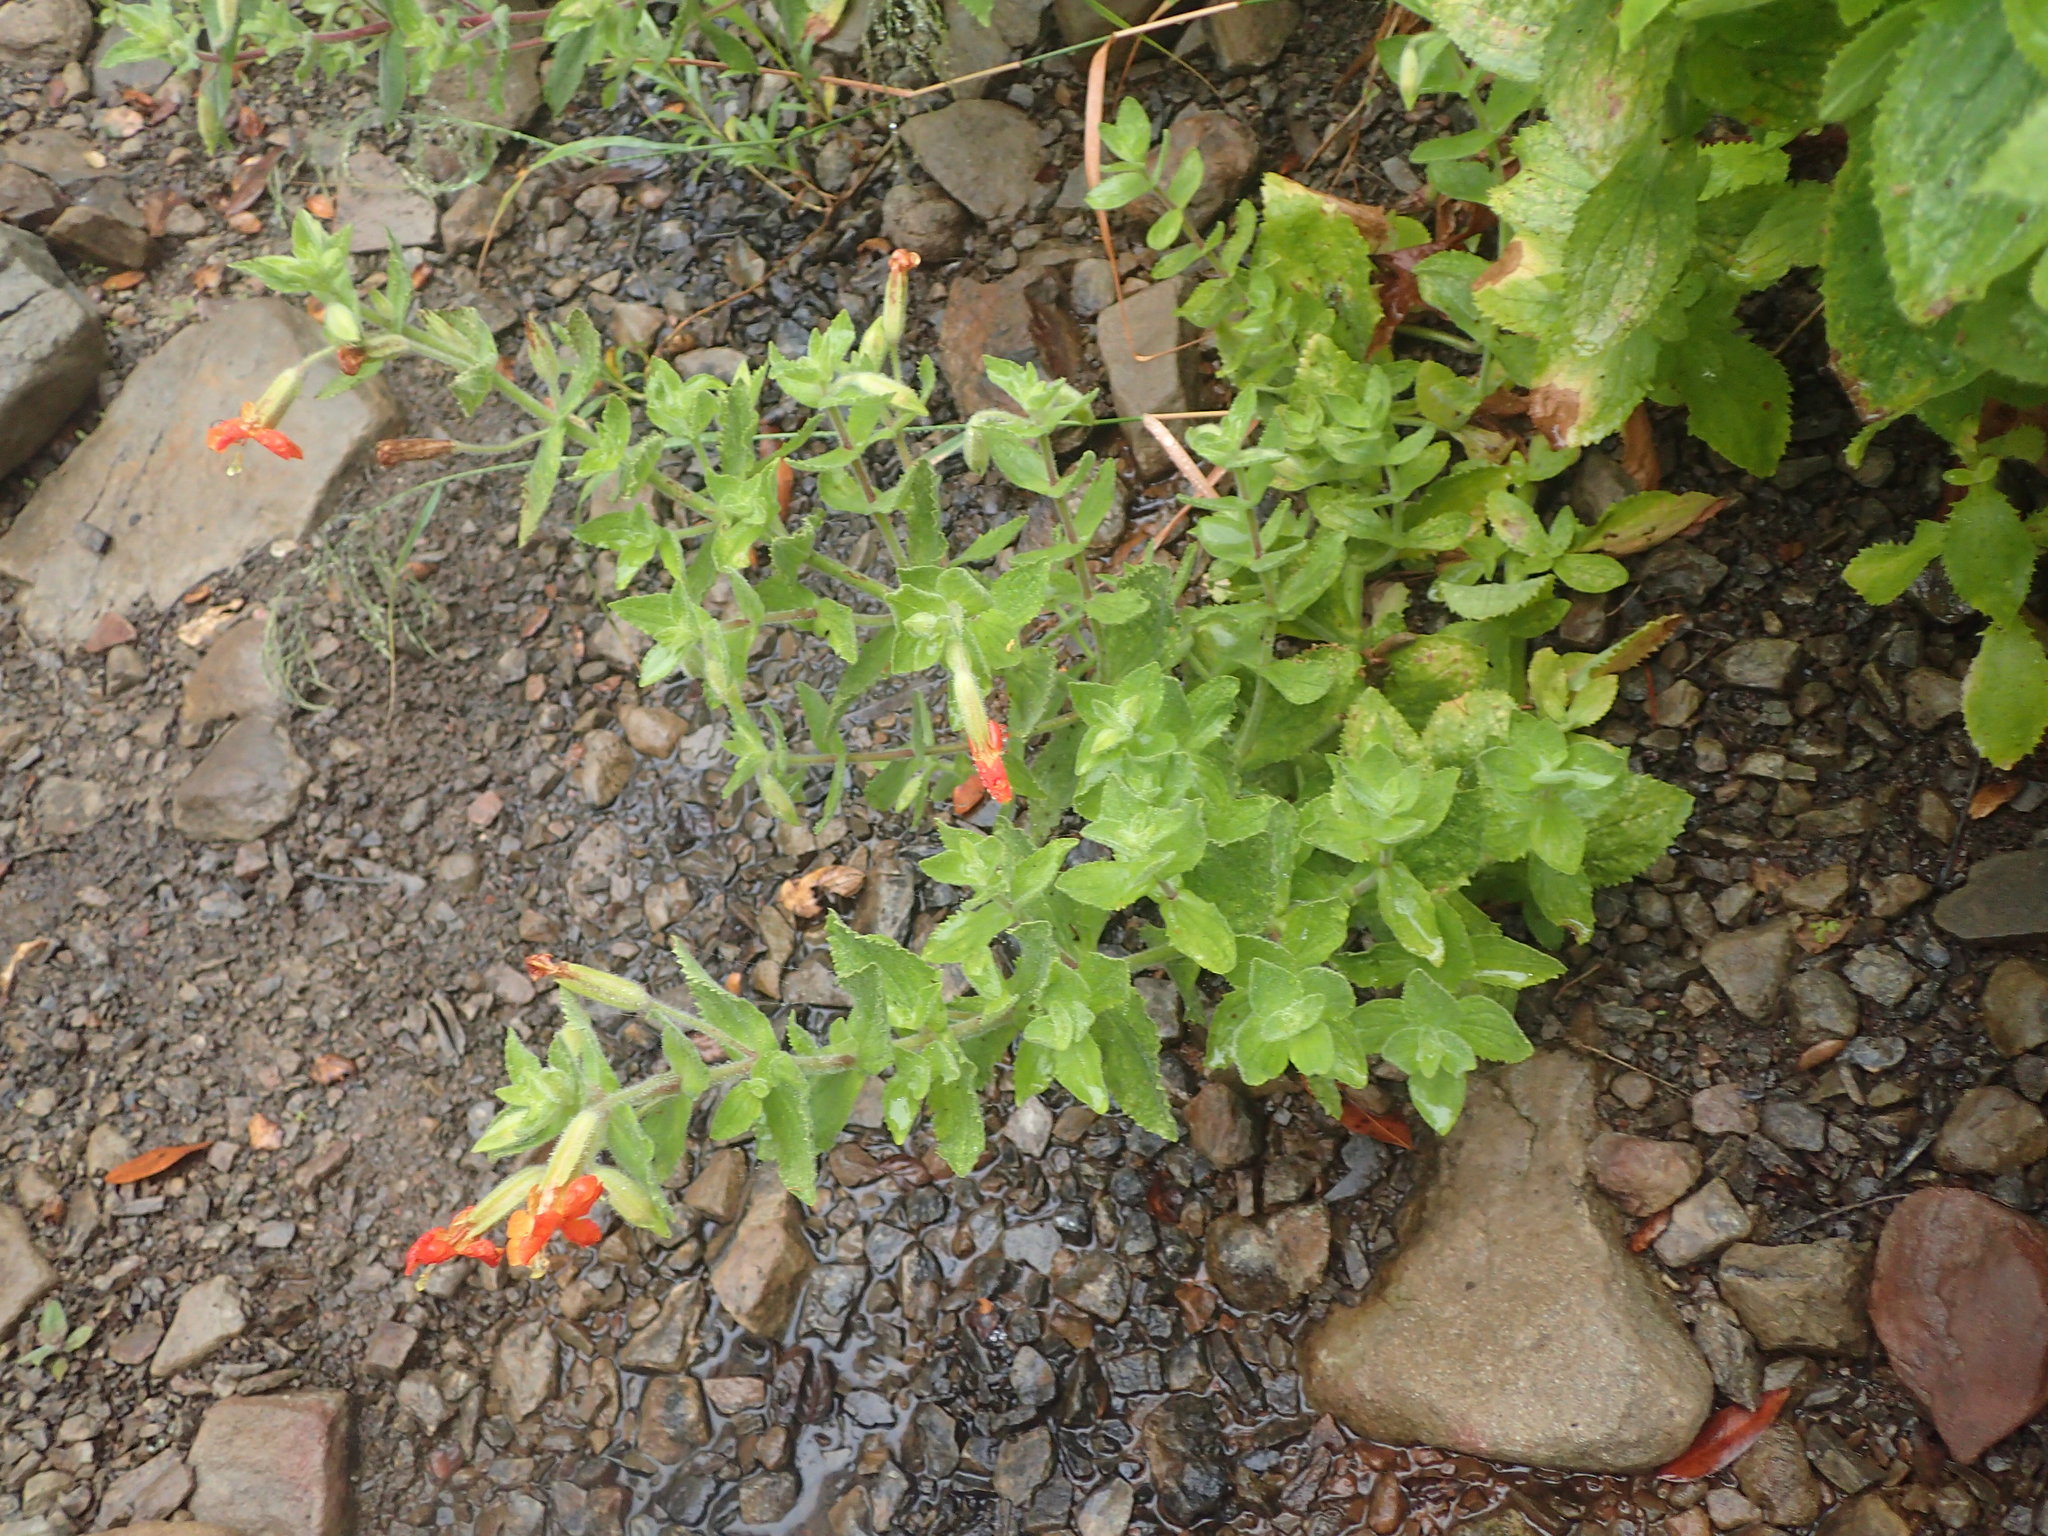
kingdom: Plantae
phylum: Tracheophyta
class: Magnoliopsida
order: Lamiales
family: Phrymaceae
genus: Erythranthe
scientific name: Erythranthe cardinalis
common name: Scarlet monkey-flower
